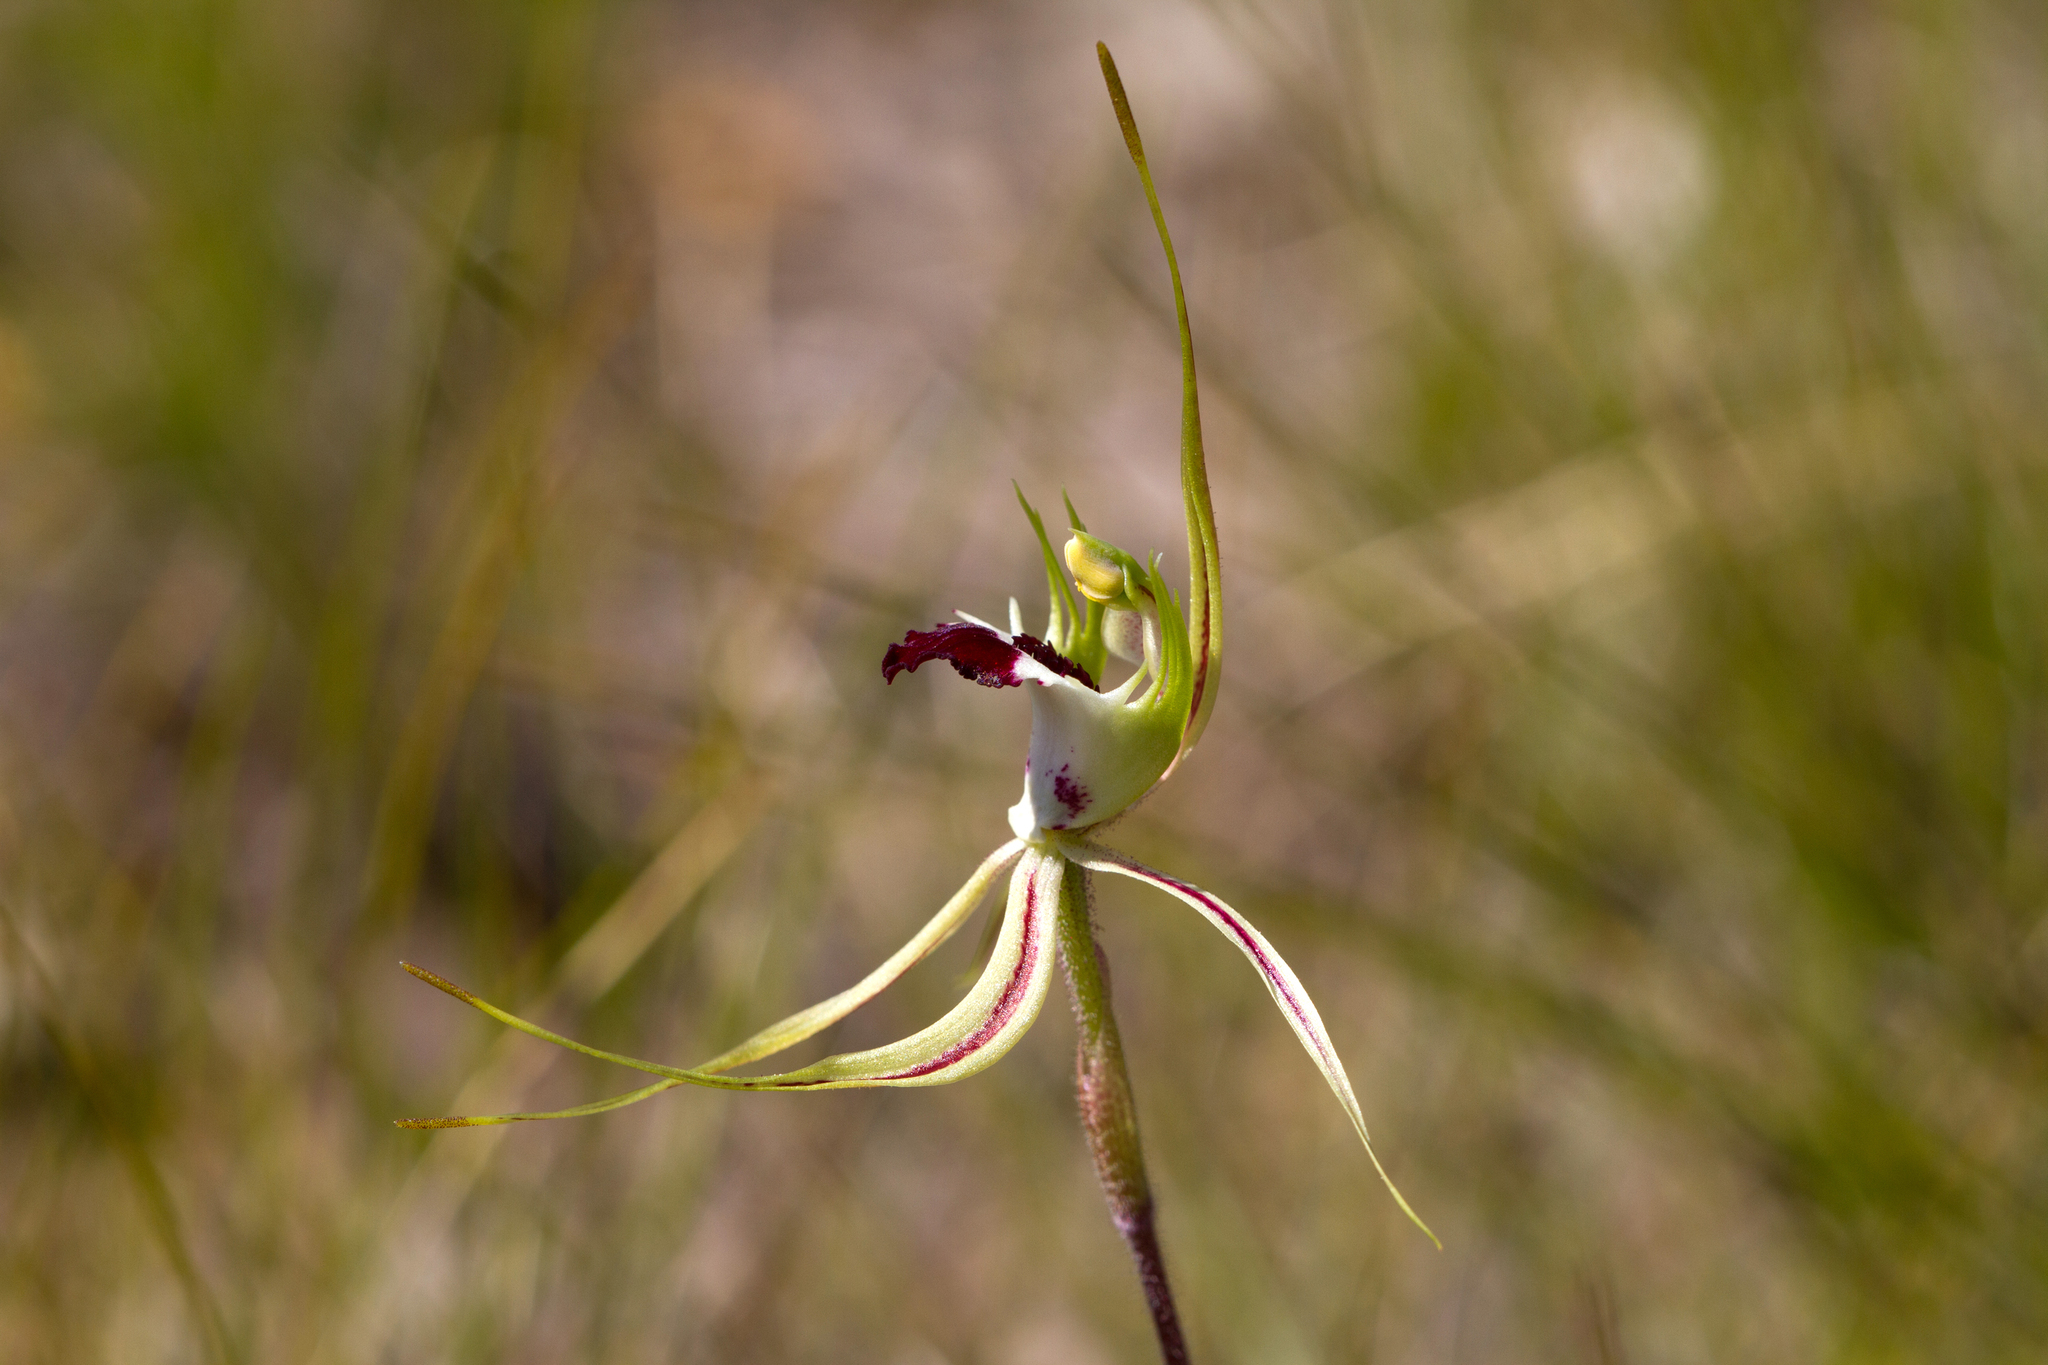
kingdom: Plantae
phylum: Tracheophyta
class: Liliopsida
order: Asparagales
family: Orchidaceae
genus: Caladenia
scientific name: Caladenia tentaculata
